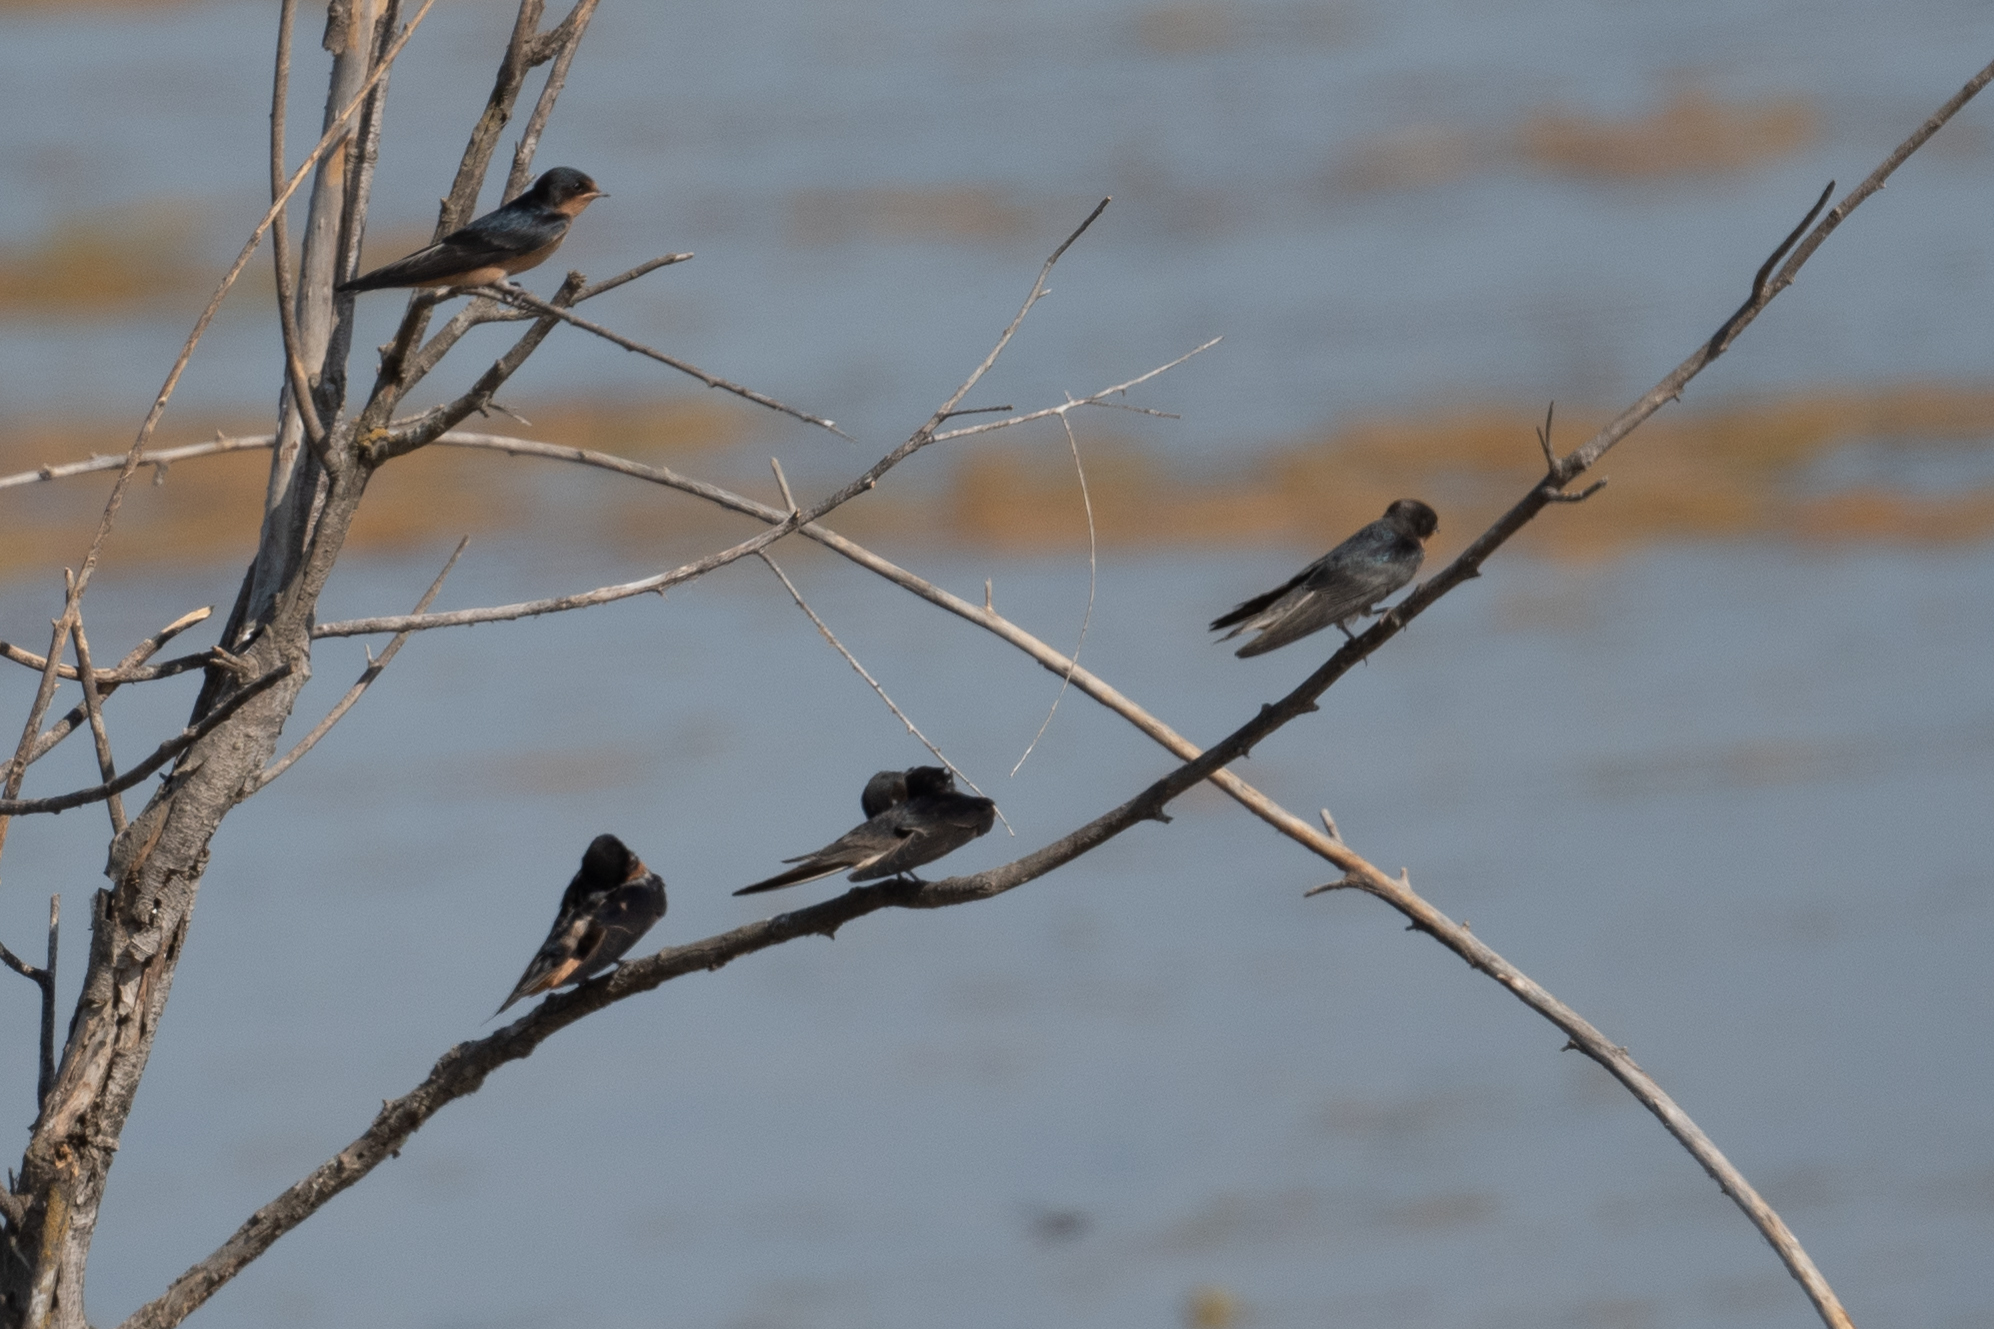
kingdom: Animalia
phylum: Chordata
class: Aves
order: Passeriformes
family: Hirundinidae
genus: Hirundo
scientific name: Hirundo rustica
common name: Barn swallow
